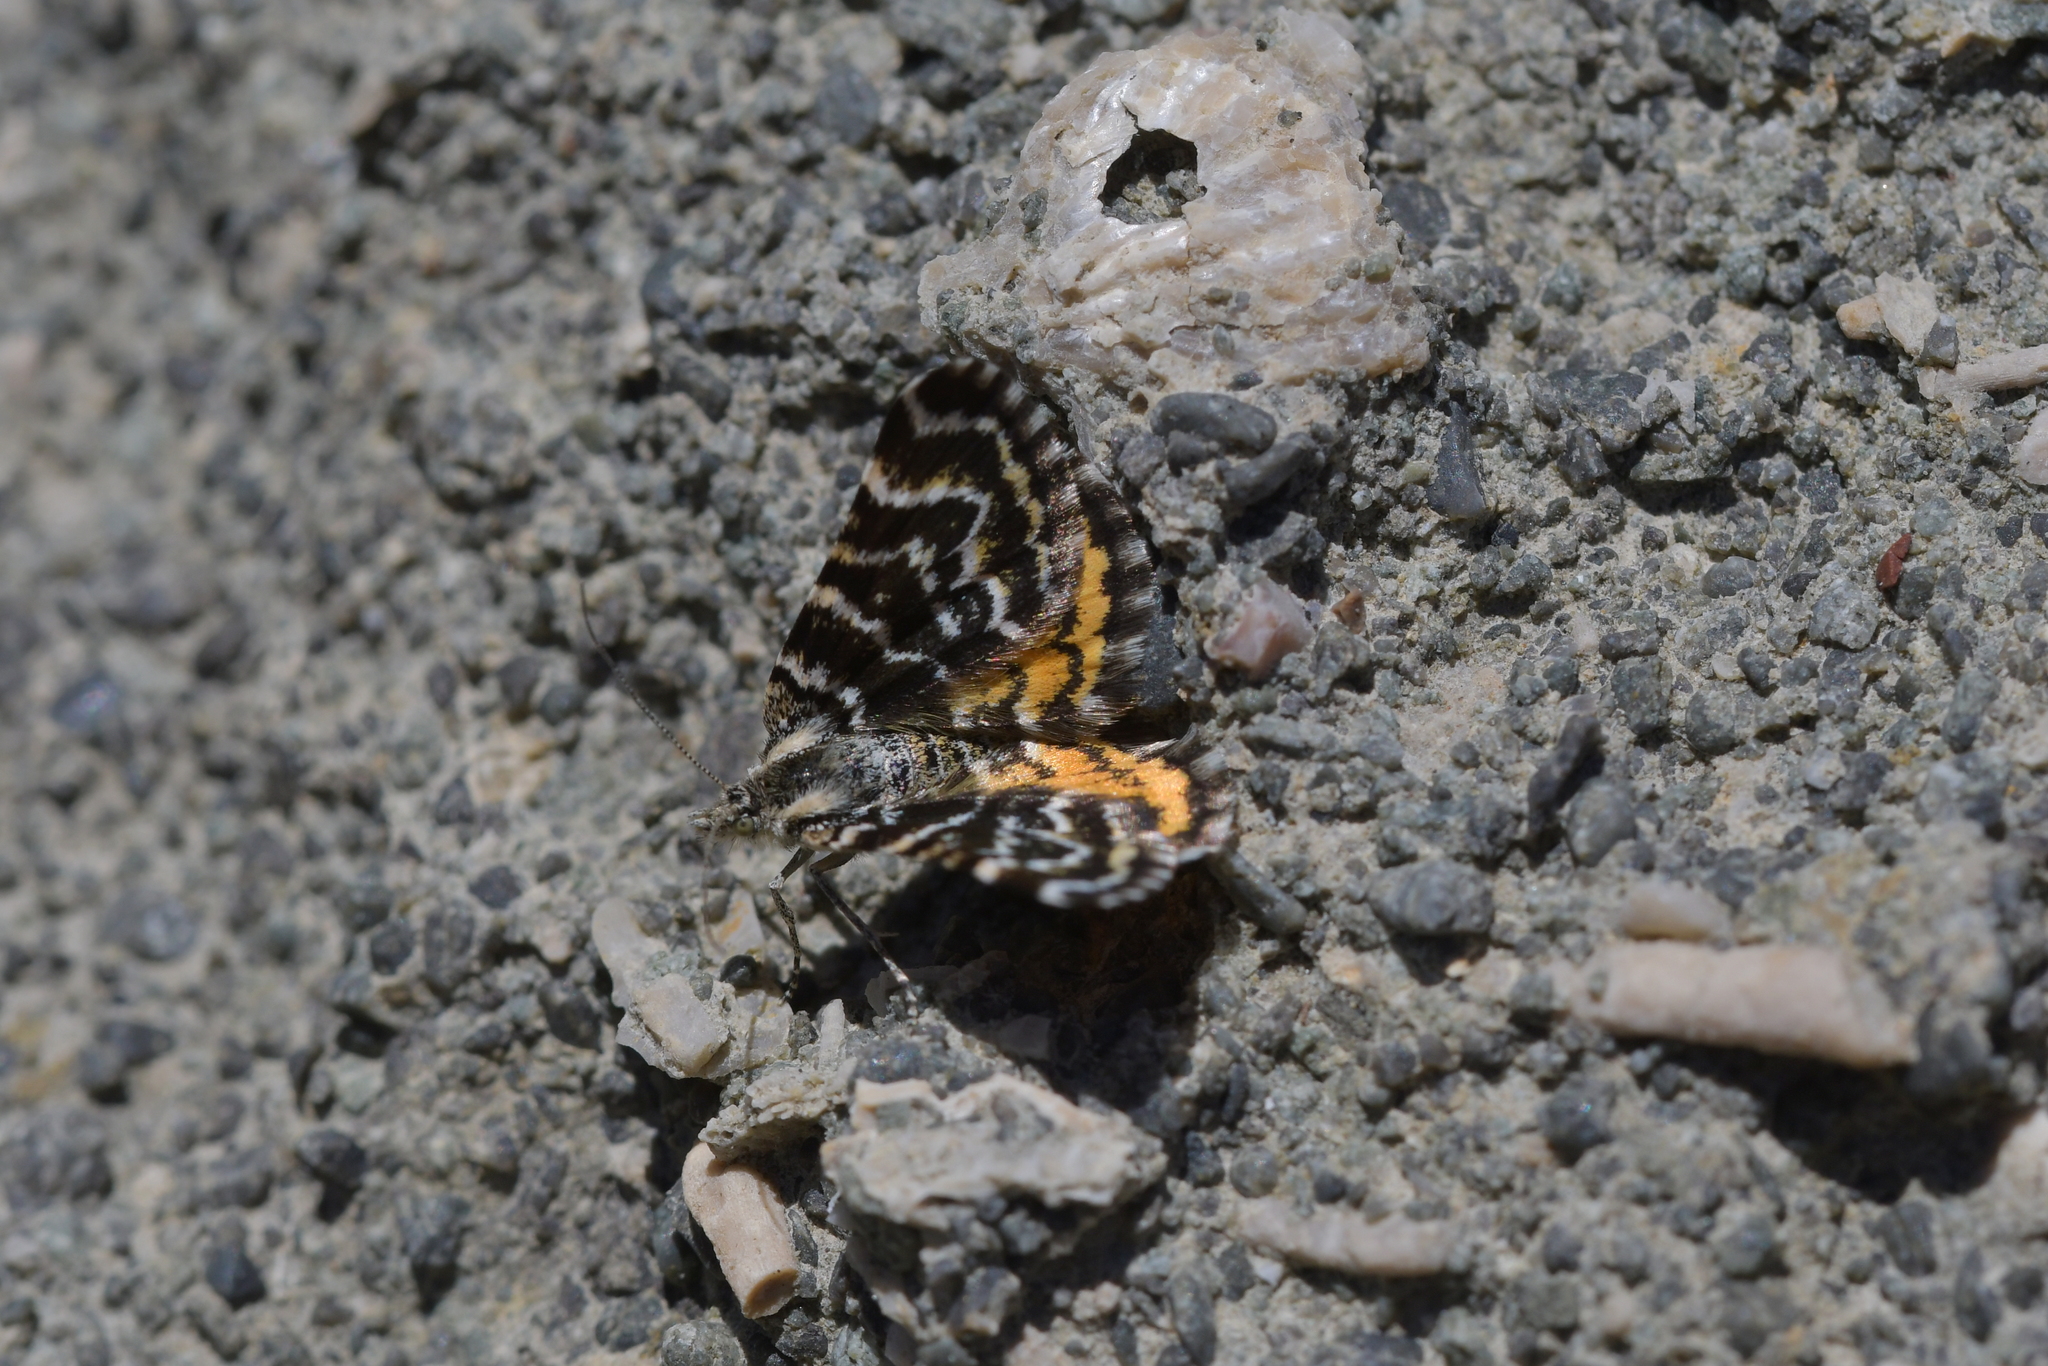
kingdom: Animalia
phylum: Arthropoda
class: Insecta
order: Lepidoptera
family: Geometridae
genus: Notoreas
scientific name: Notoreas perornata
